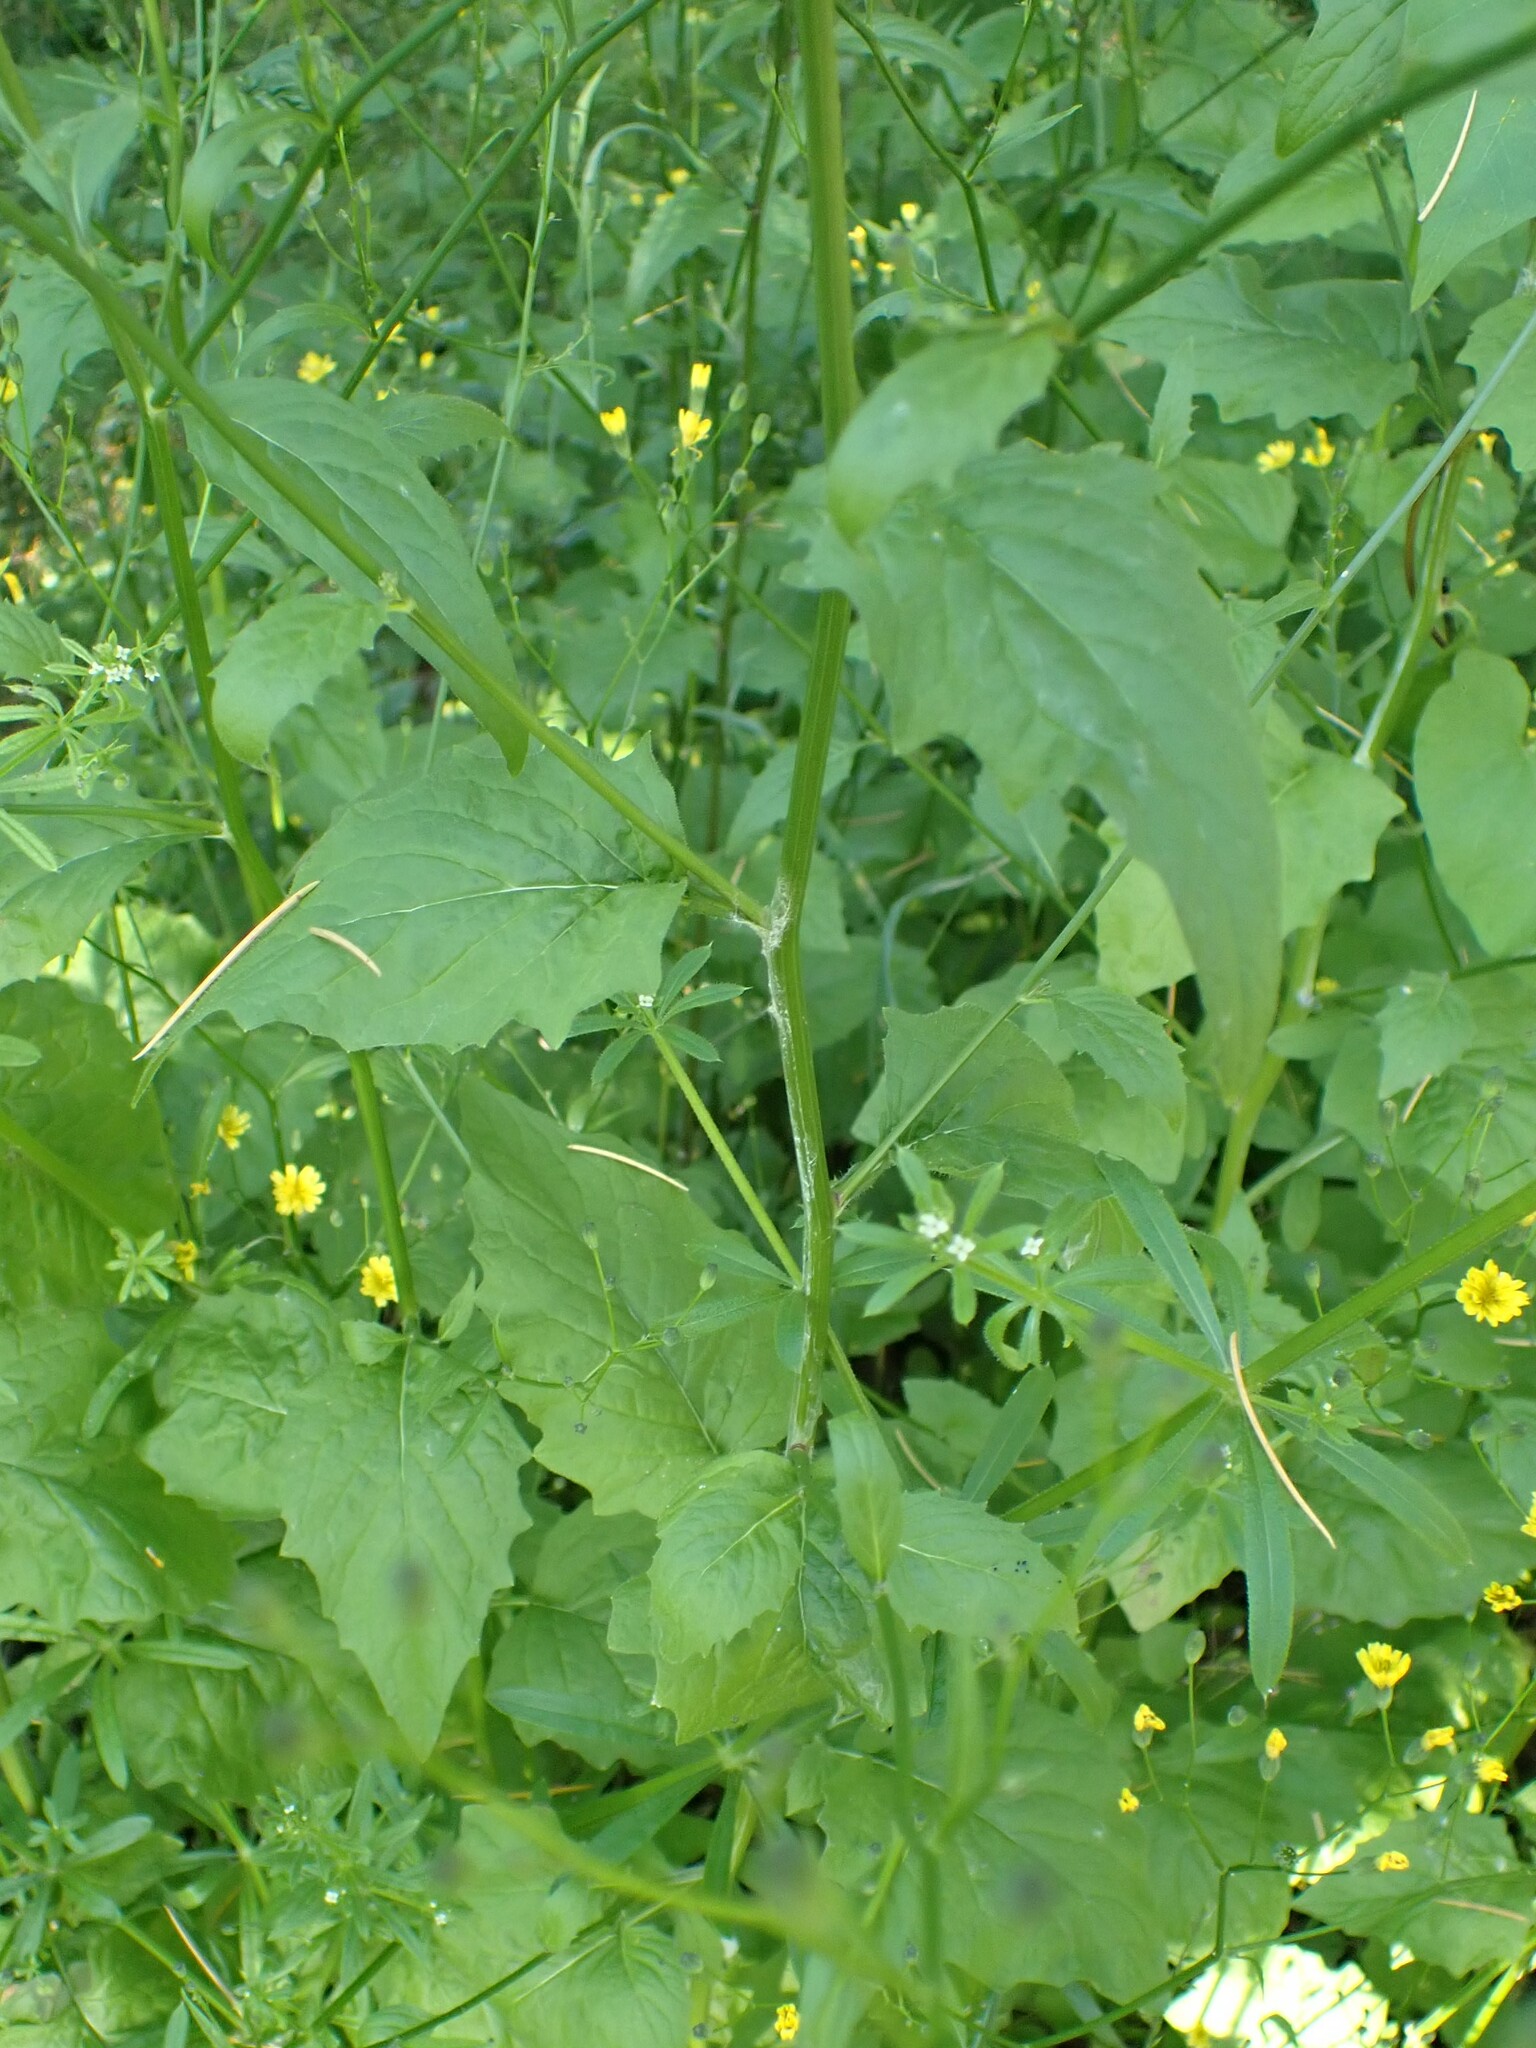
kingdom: Plantae
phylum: Tracheophyta
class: Magnoliopsida
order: Asterales
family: Asteraceae
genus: Lapsana
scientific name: Lapsana communis
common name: Nipplewort
